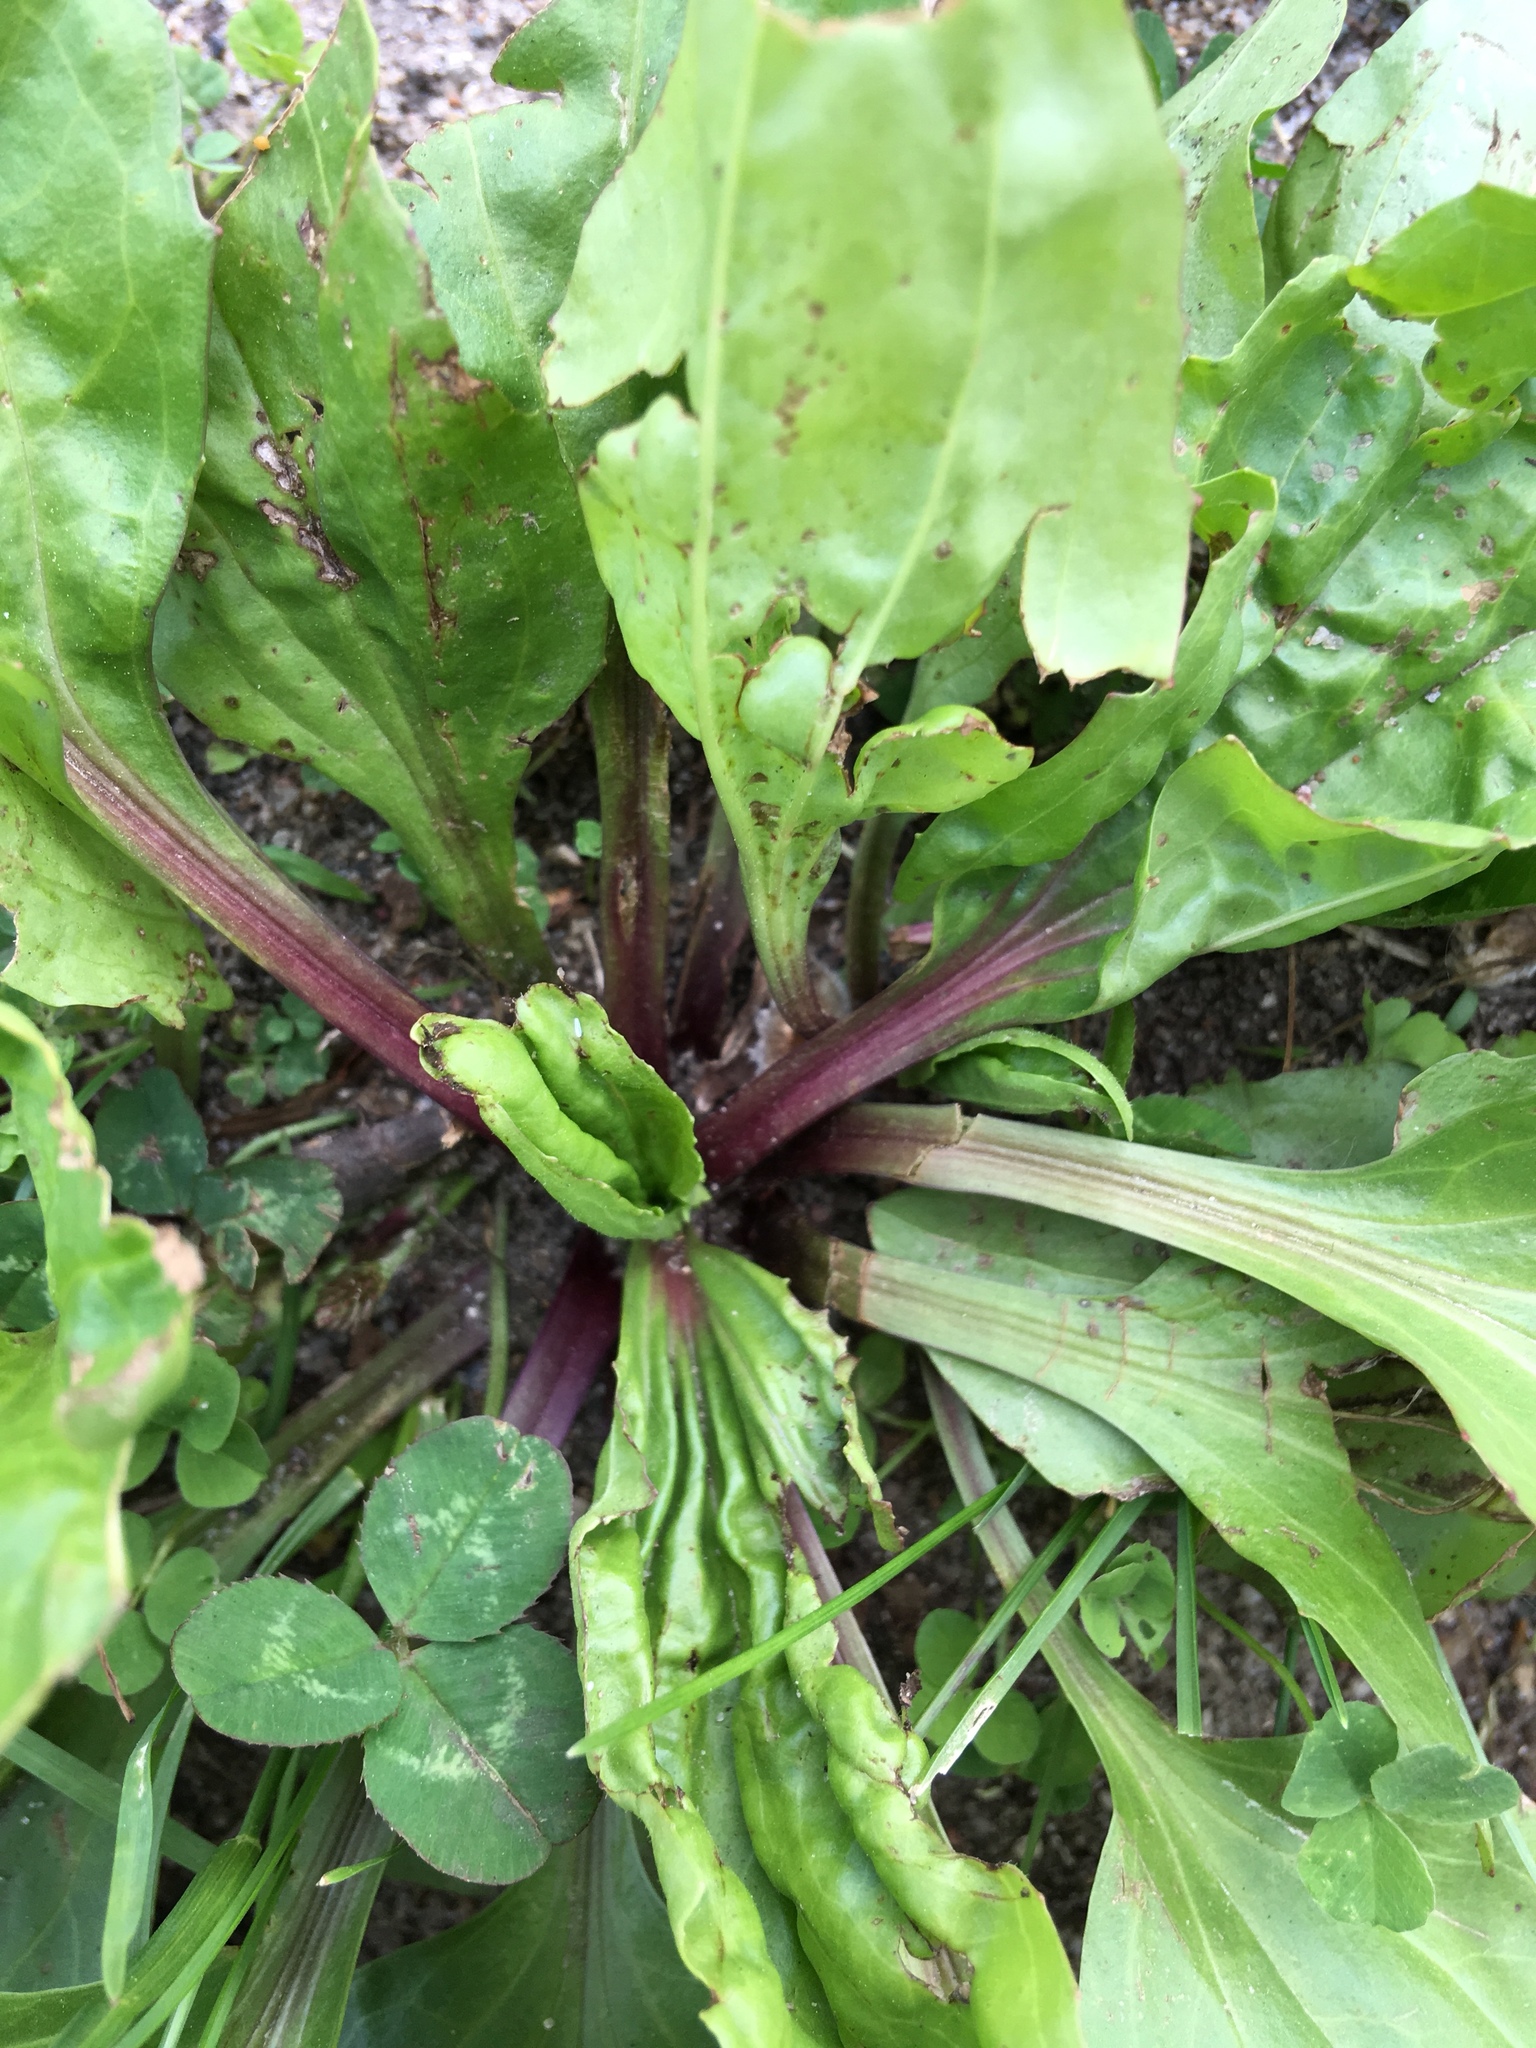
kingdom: Plantae
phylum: Tracheophyta
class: Magnoliopsida
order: Lamiales
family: Plantaginaceae
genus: Plantago
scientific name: Plantago rugelii
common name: American plantain
